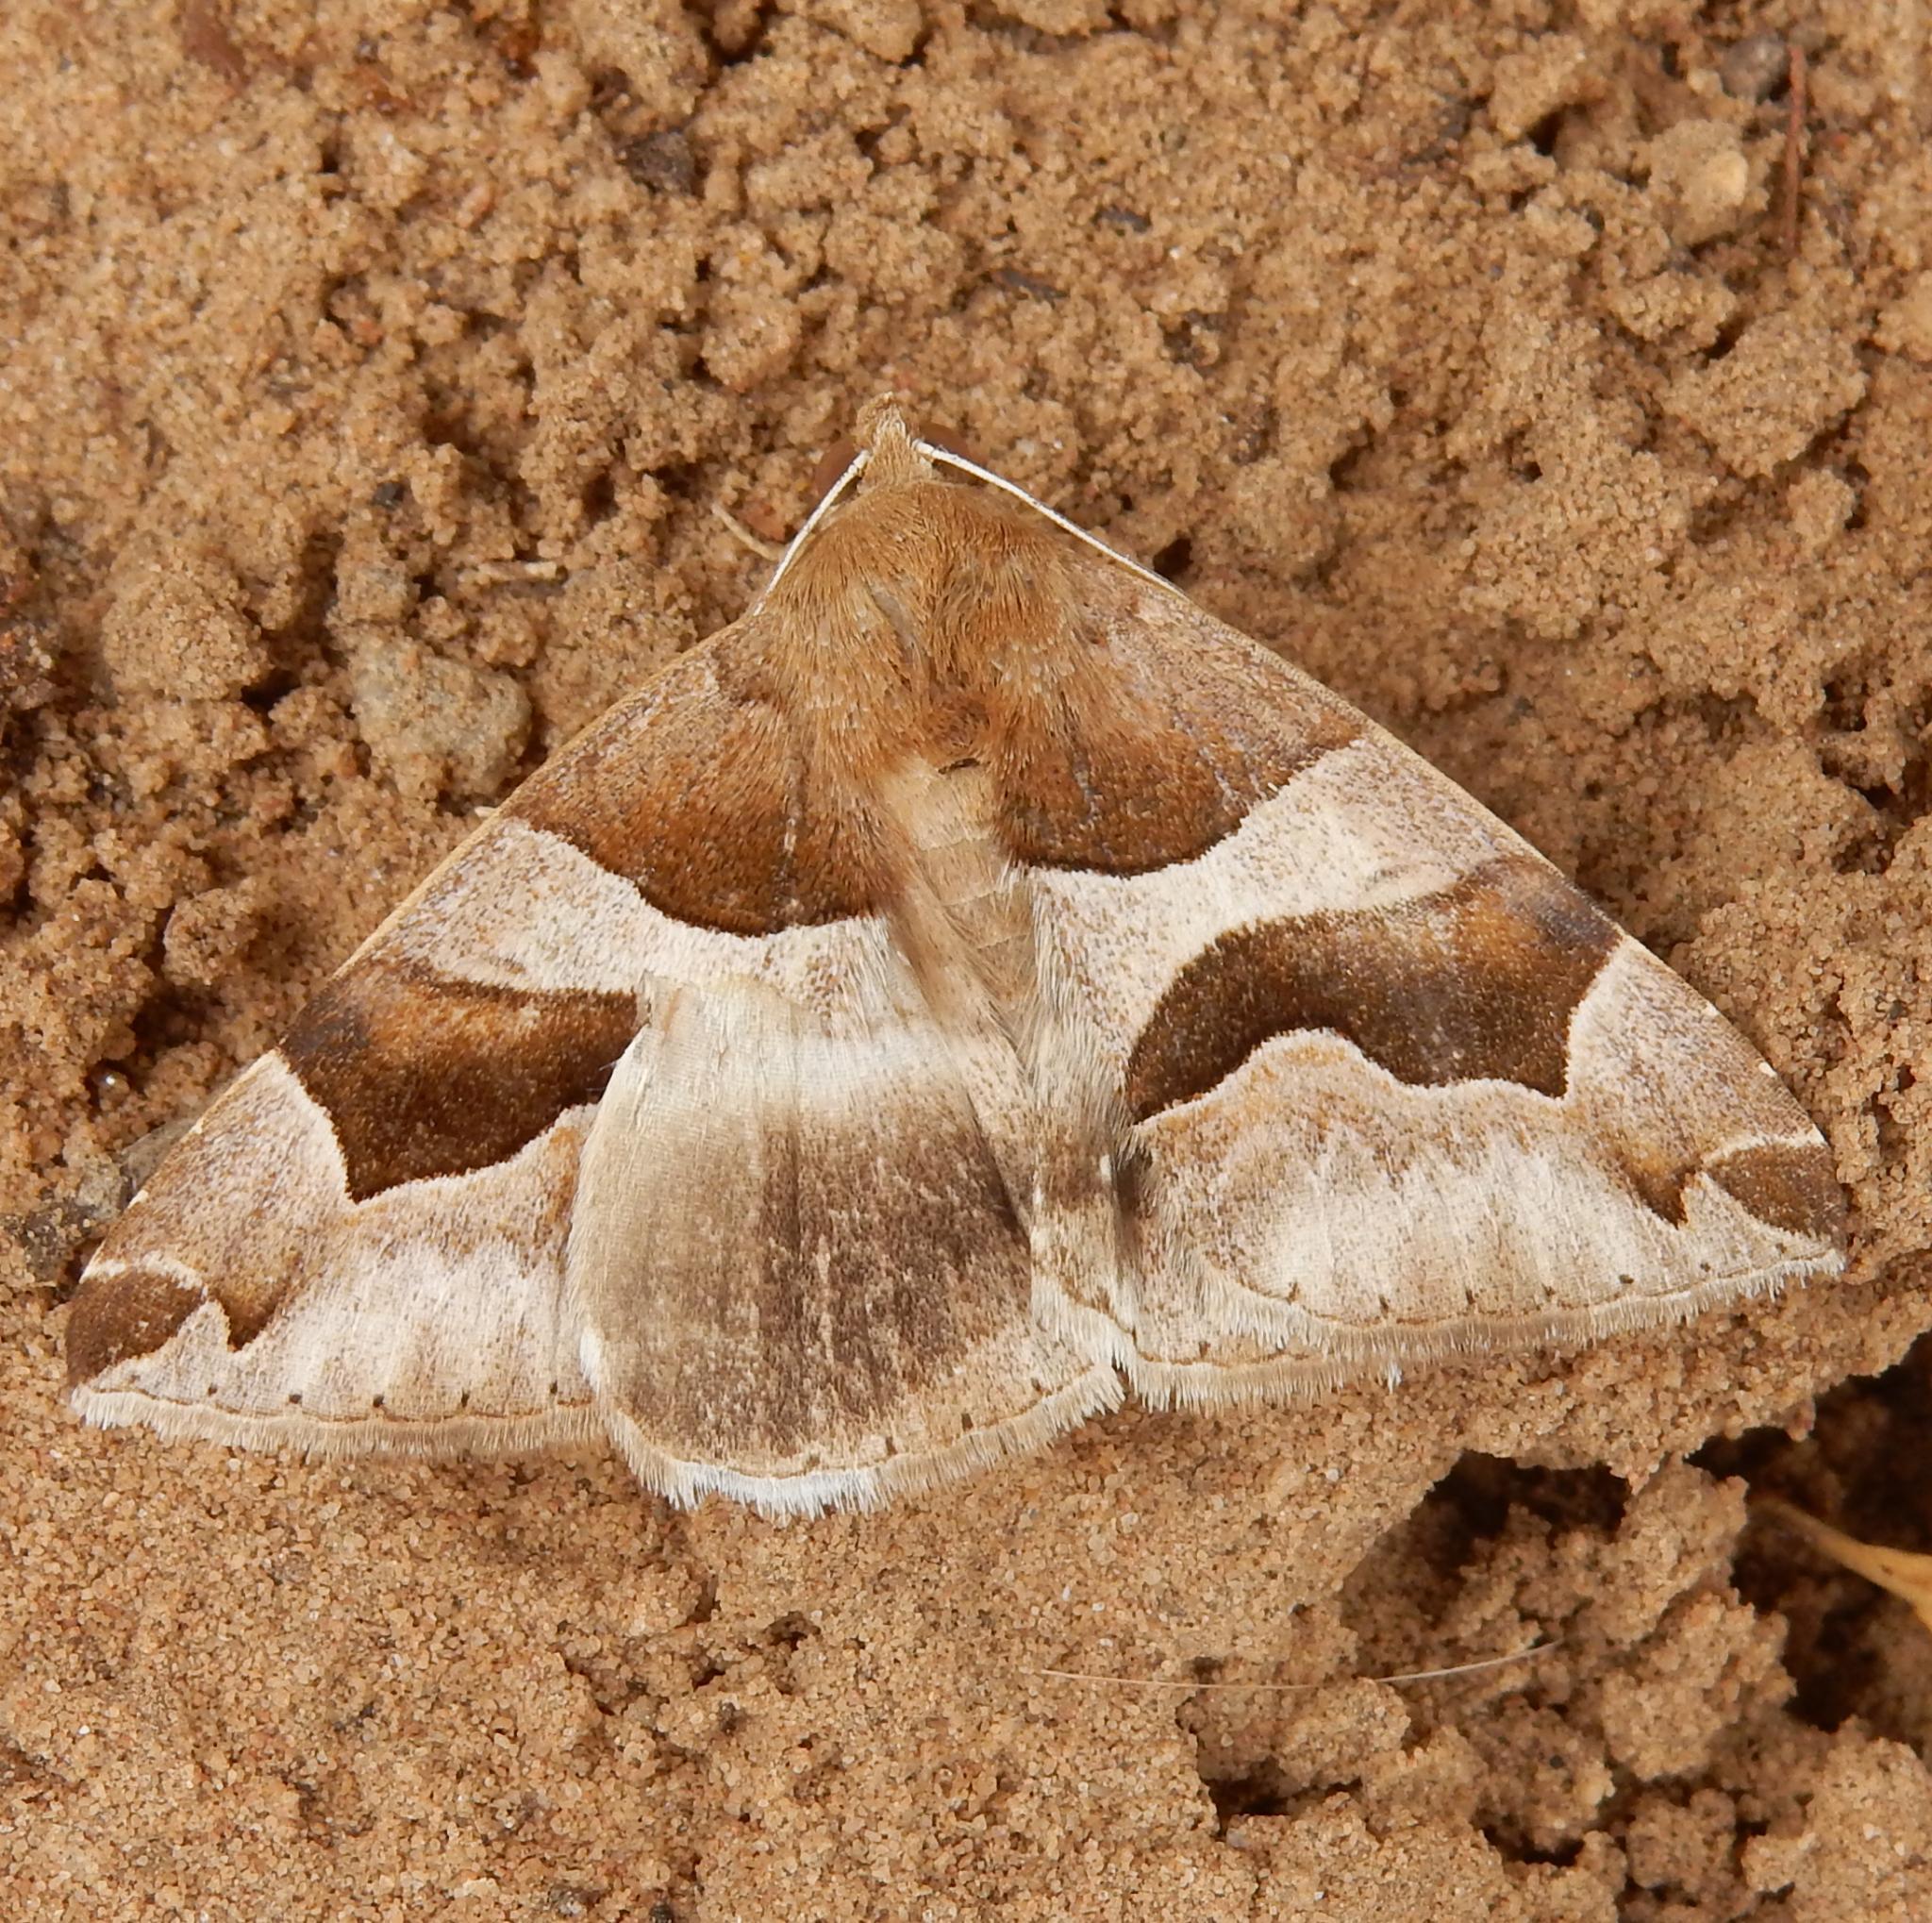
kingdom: Animalia
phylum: Arthropoda
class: Insecta
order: Lepidoptera
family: Erebidae
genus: Dysgonia
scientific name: Dysgonia torrida
